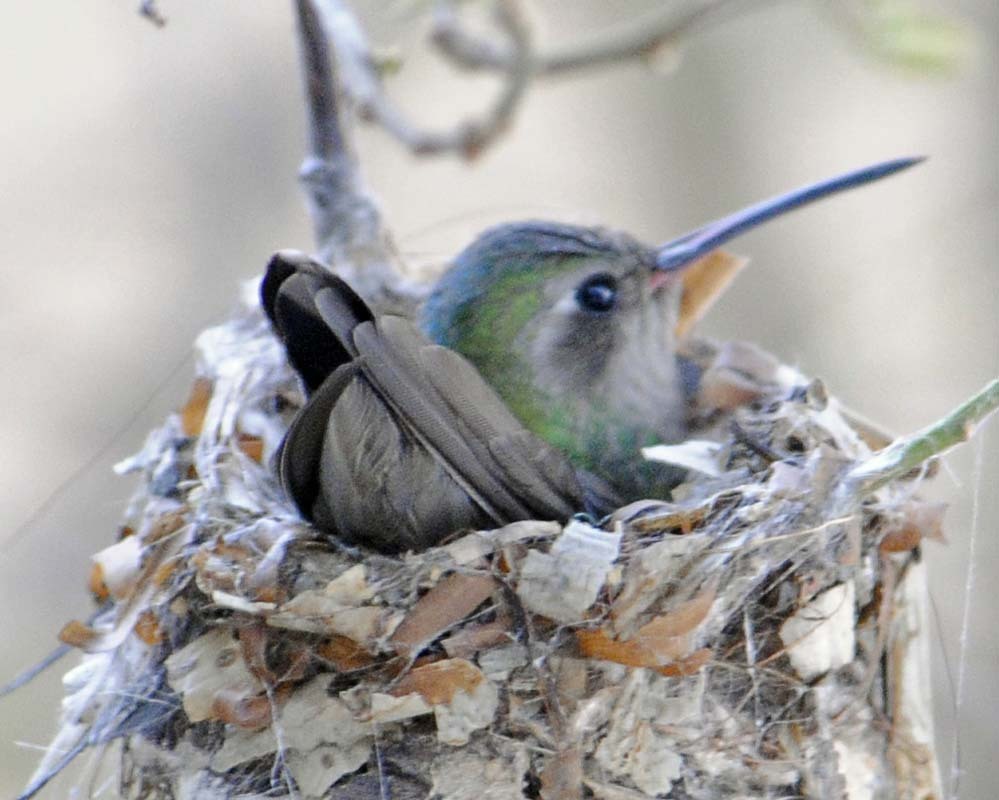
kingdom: Animalia
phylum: Chordata
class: Aves
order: Apodiformes
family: Trochilidae
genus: Cynanthus
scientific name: Cynanthus latirostris
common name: Broad-billed hummingbird
